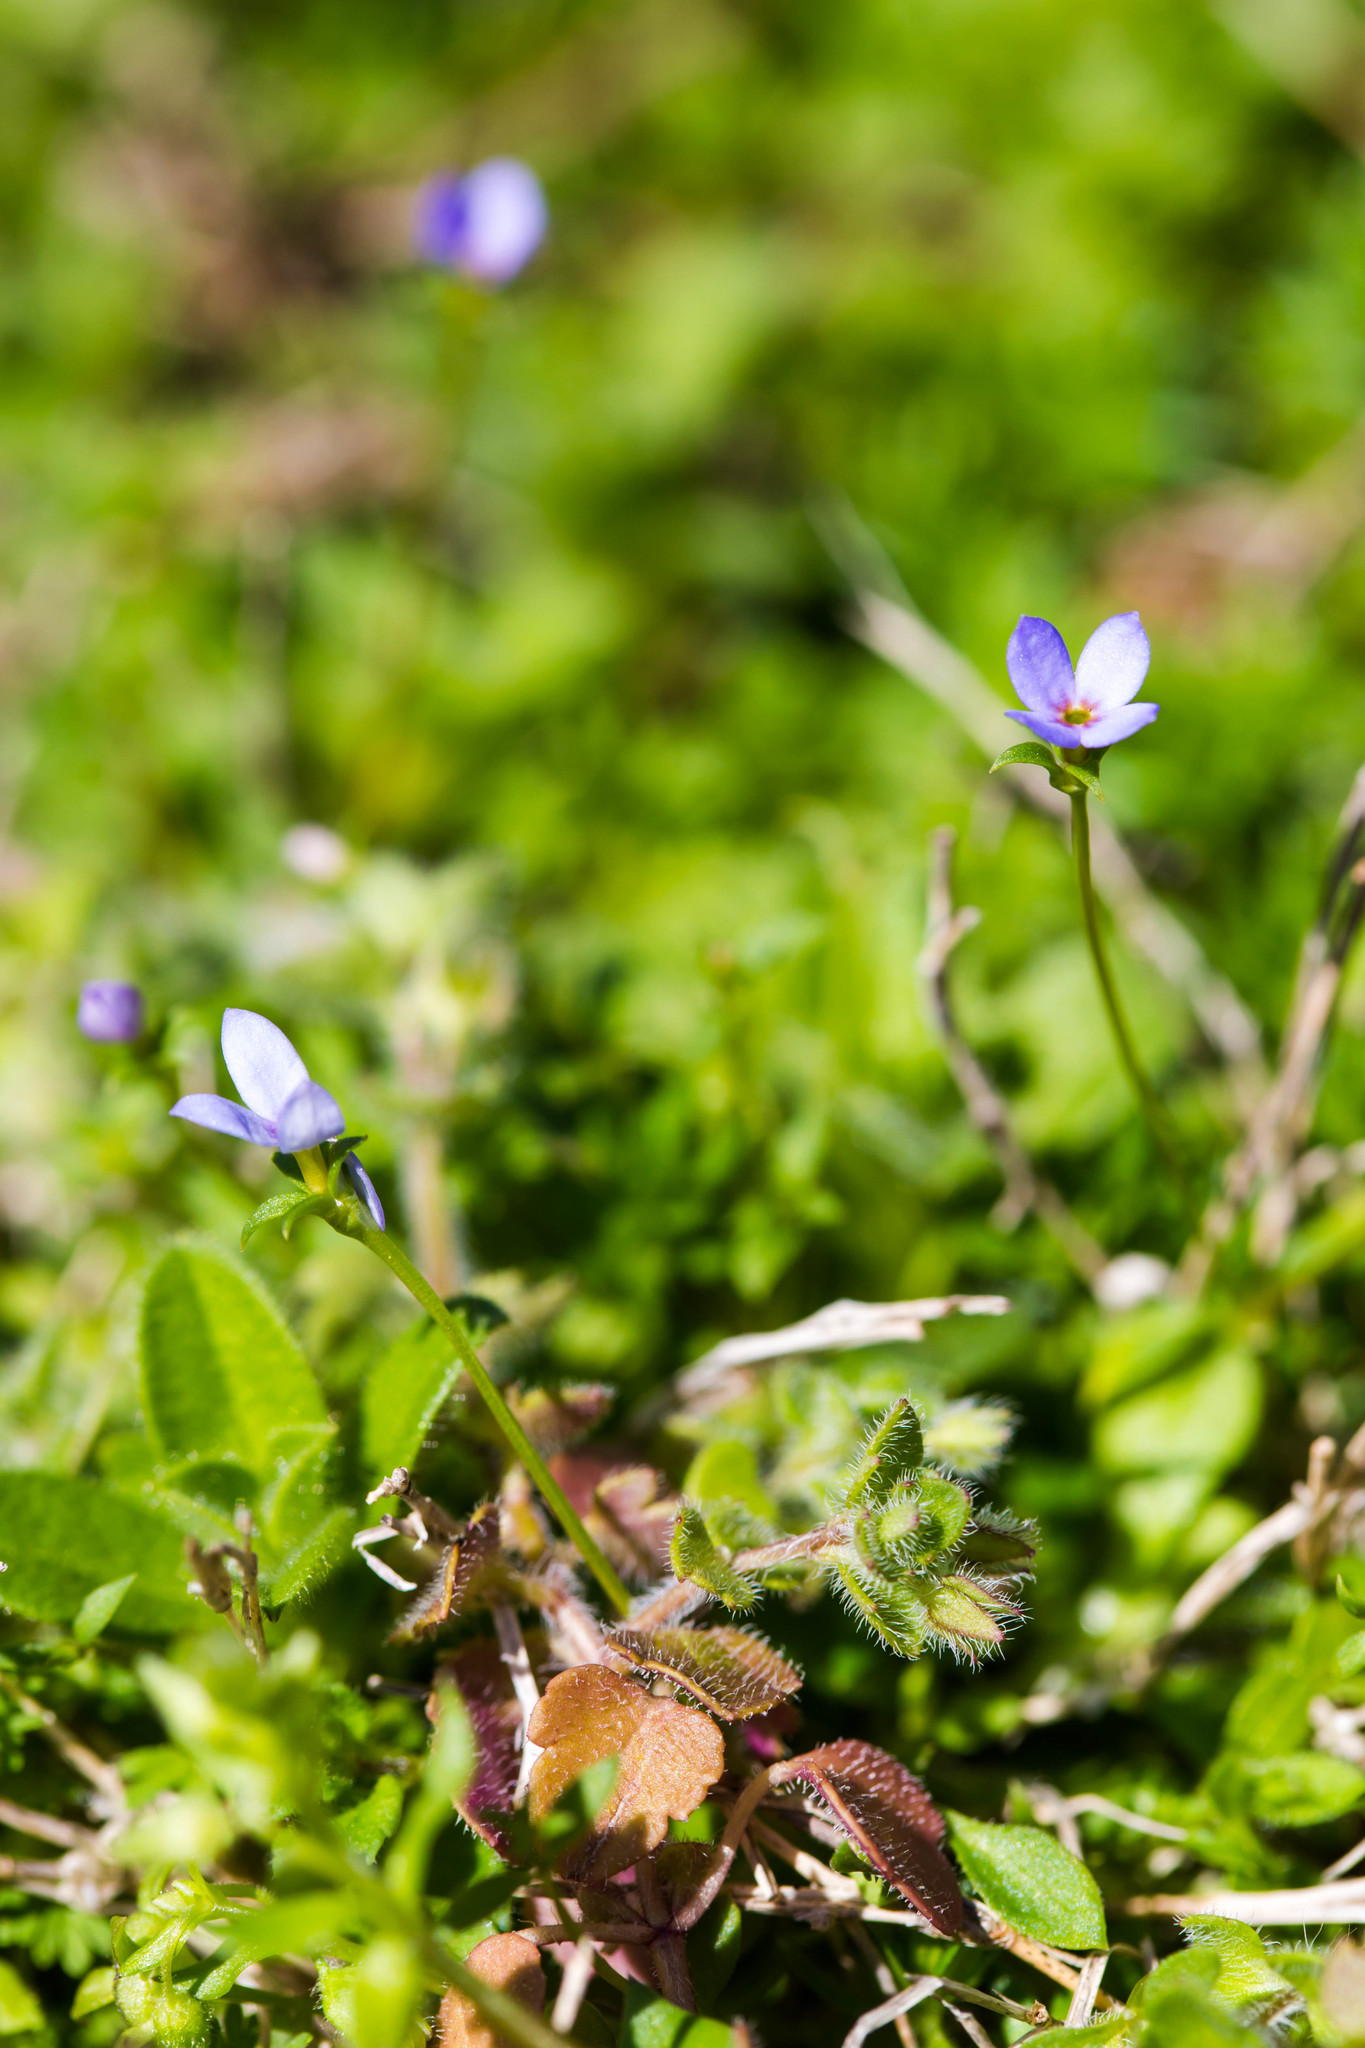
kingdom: Plantae
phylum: Tracheophyta
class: Magnoliopsida
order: Gentianales
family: Rubiaceae
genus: Houstonia
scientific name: Houstonia pusilla
